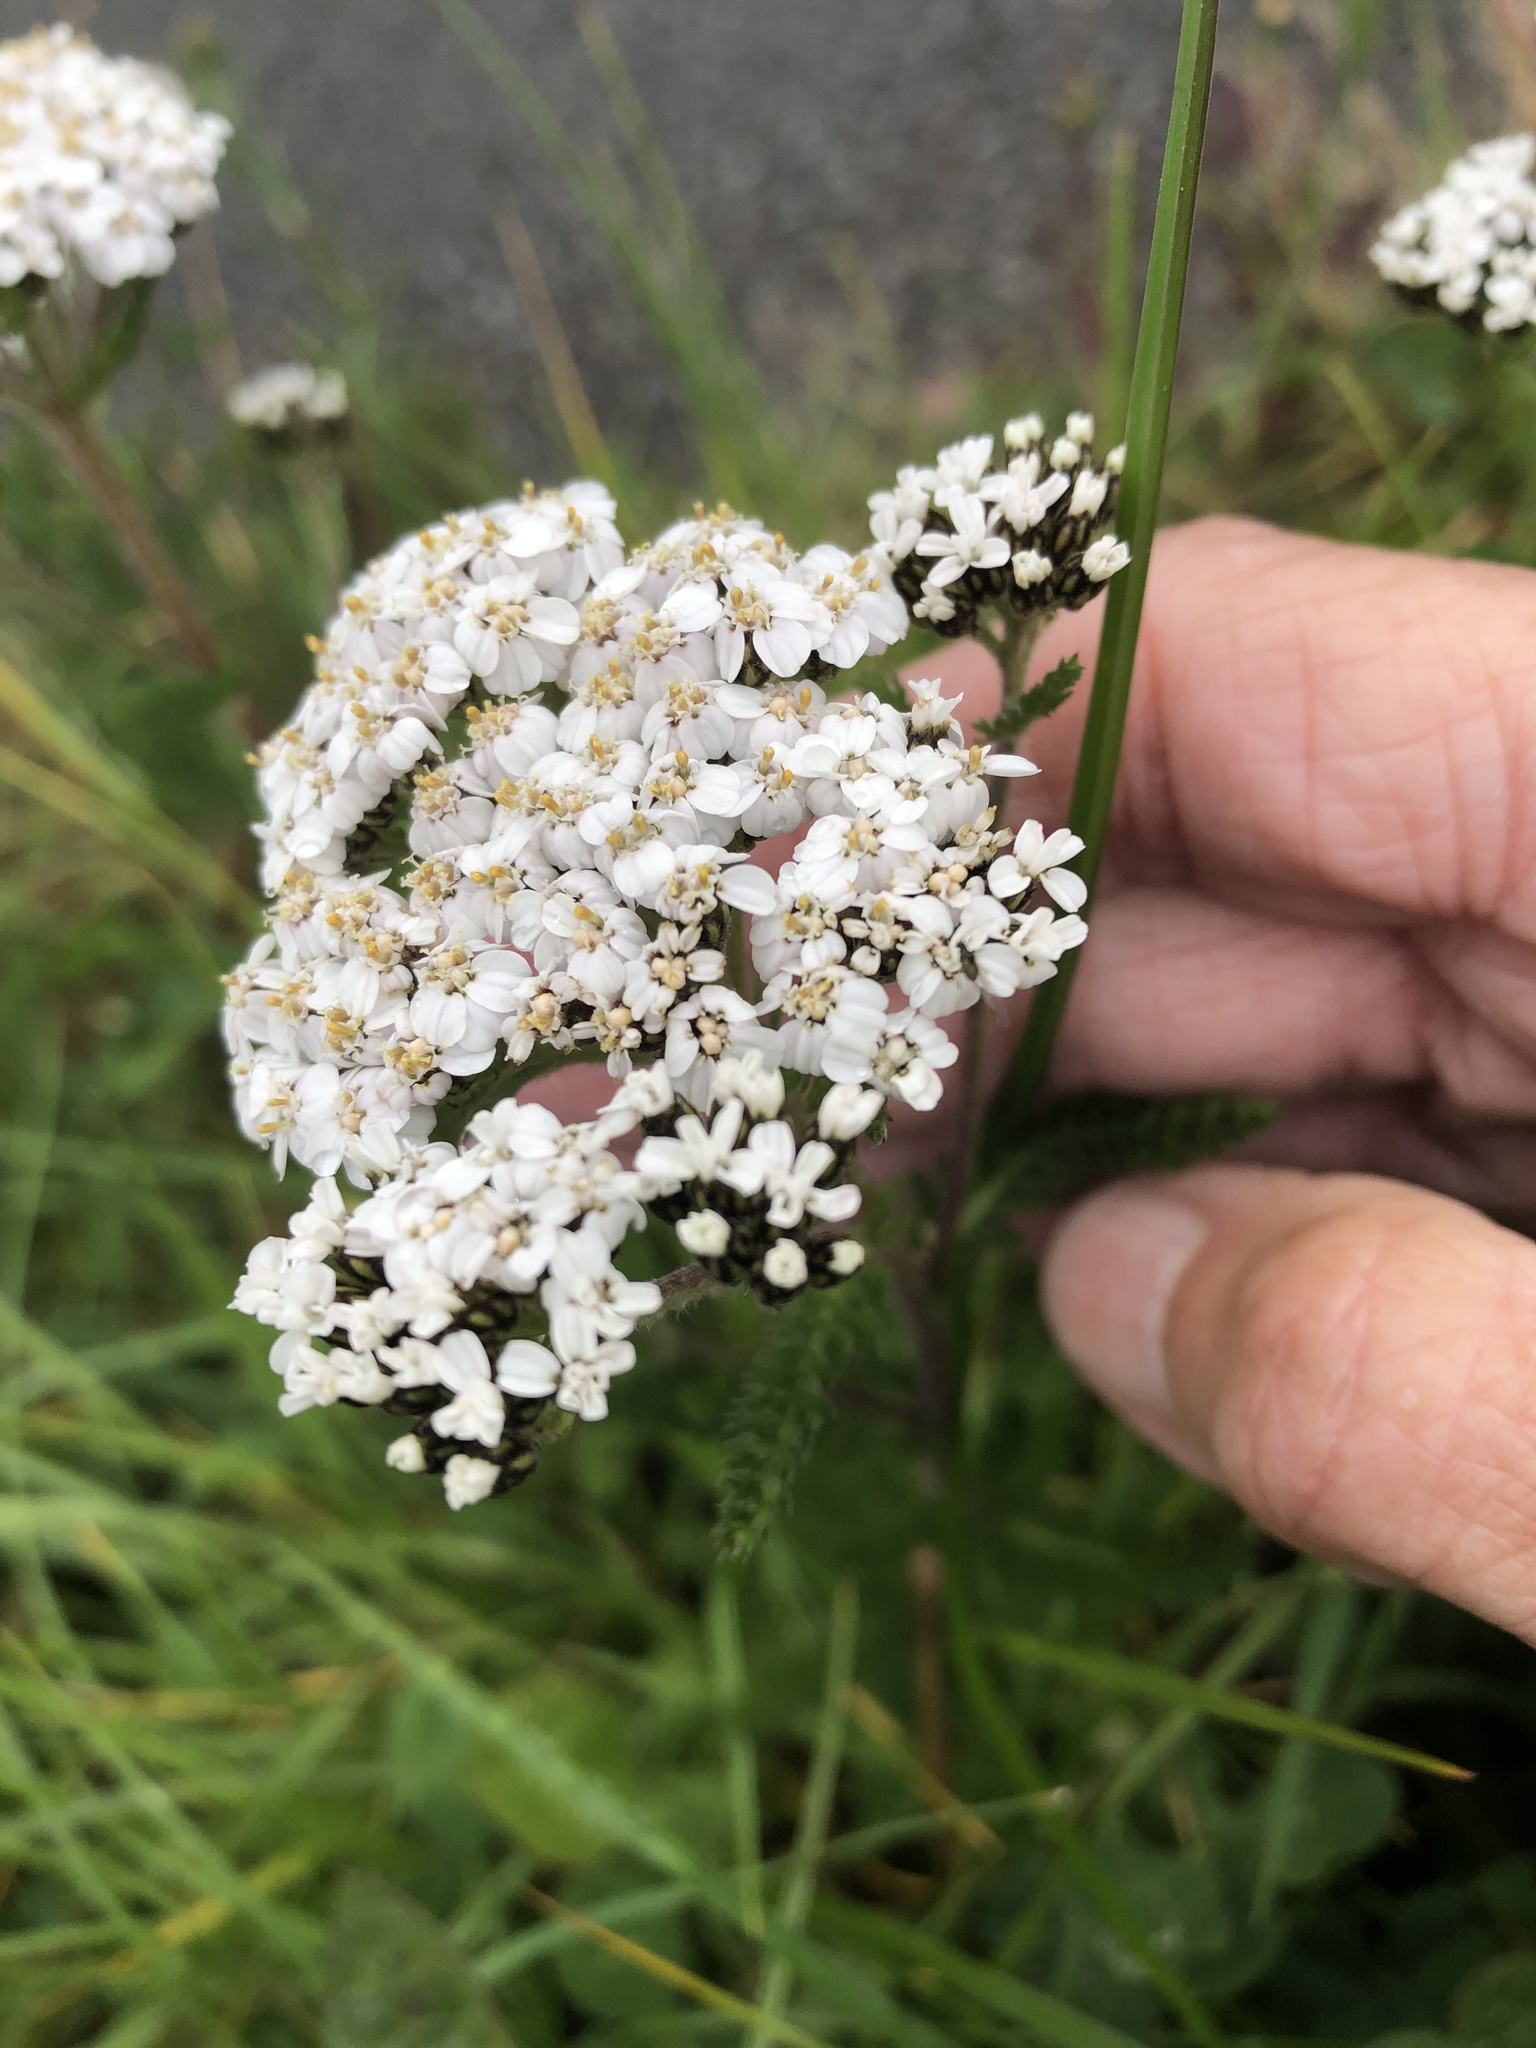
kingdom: Plantae
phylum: Tracheophyta
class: Magnoliopsida
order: Asterales
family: Asteraceae
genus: Achillea
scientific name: Achillea millefolium
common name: Yarrow
